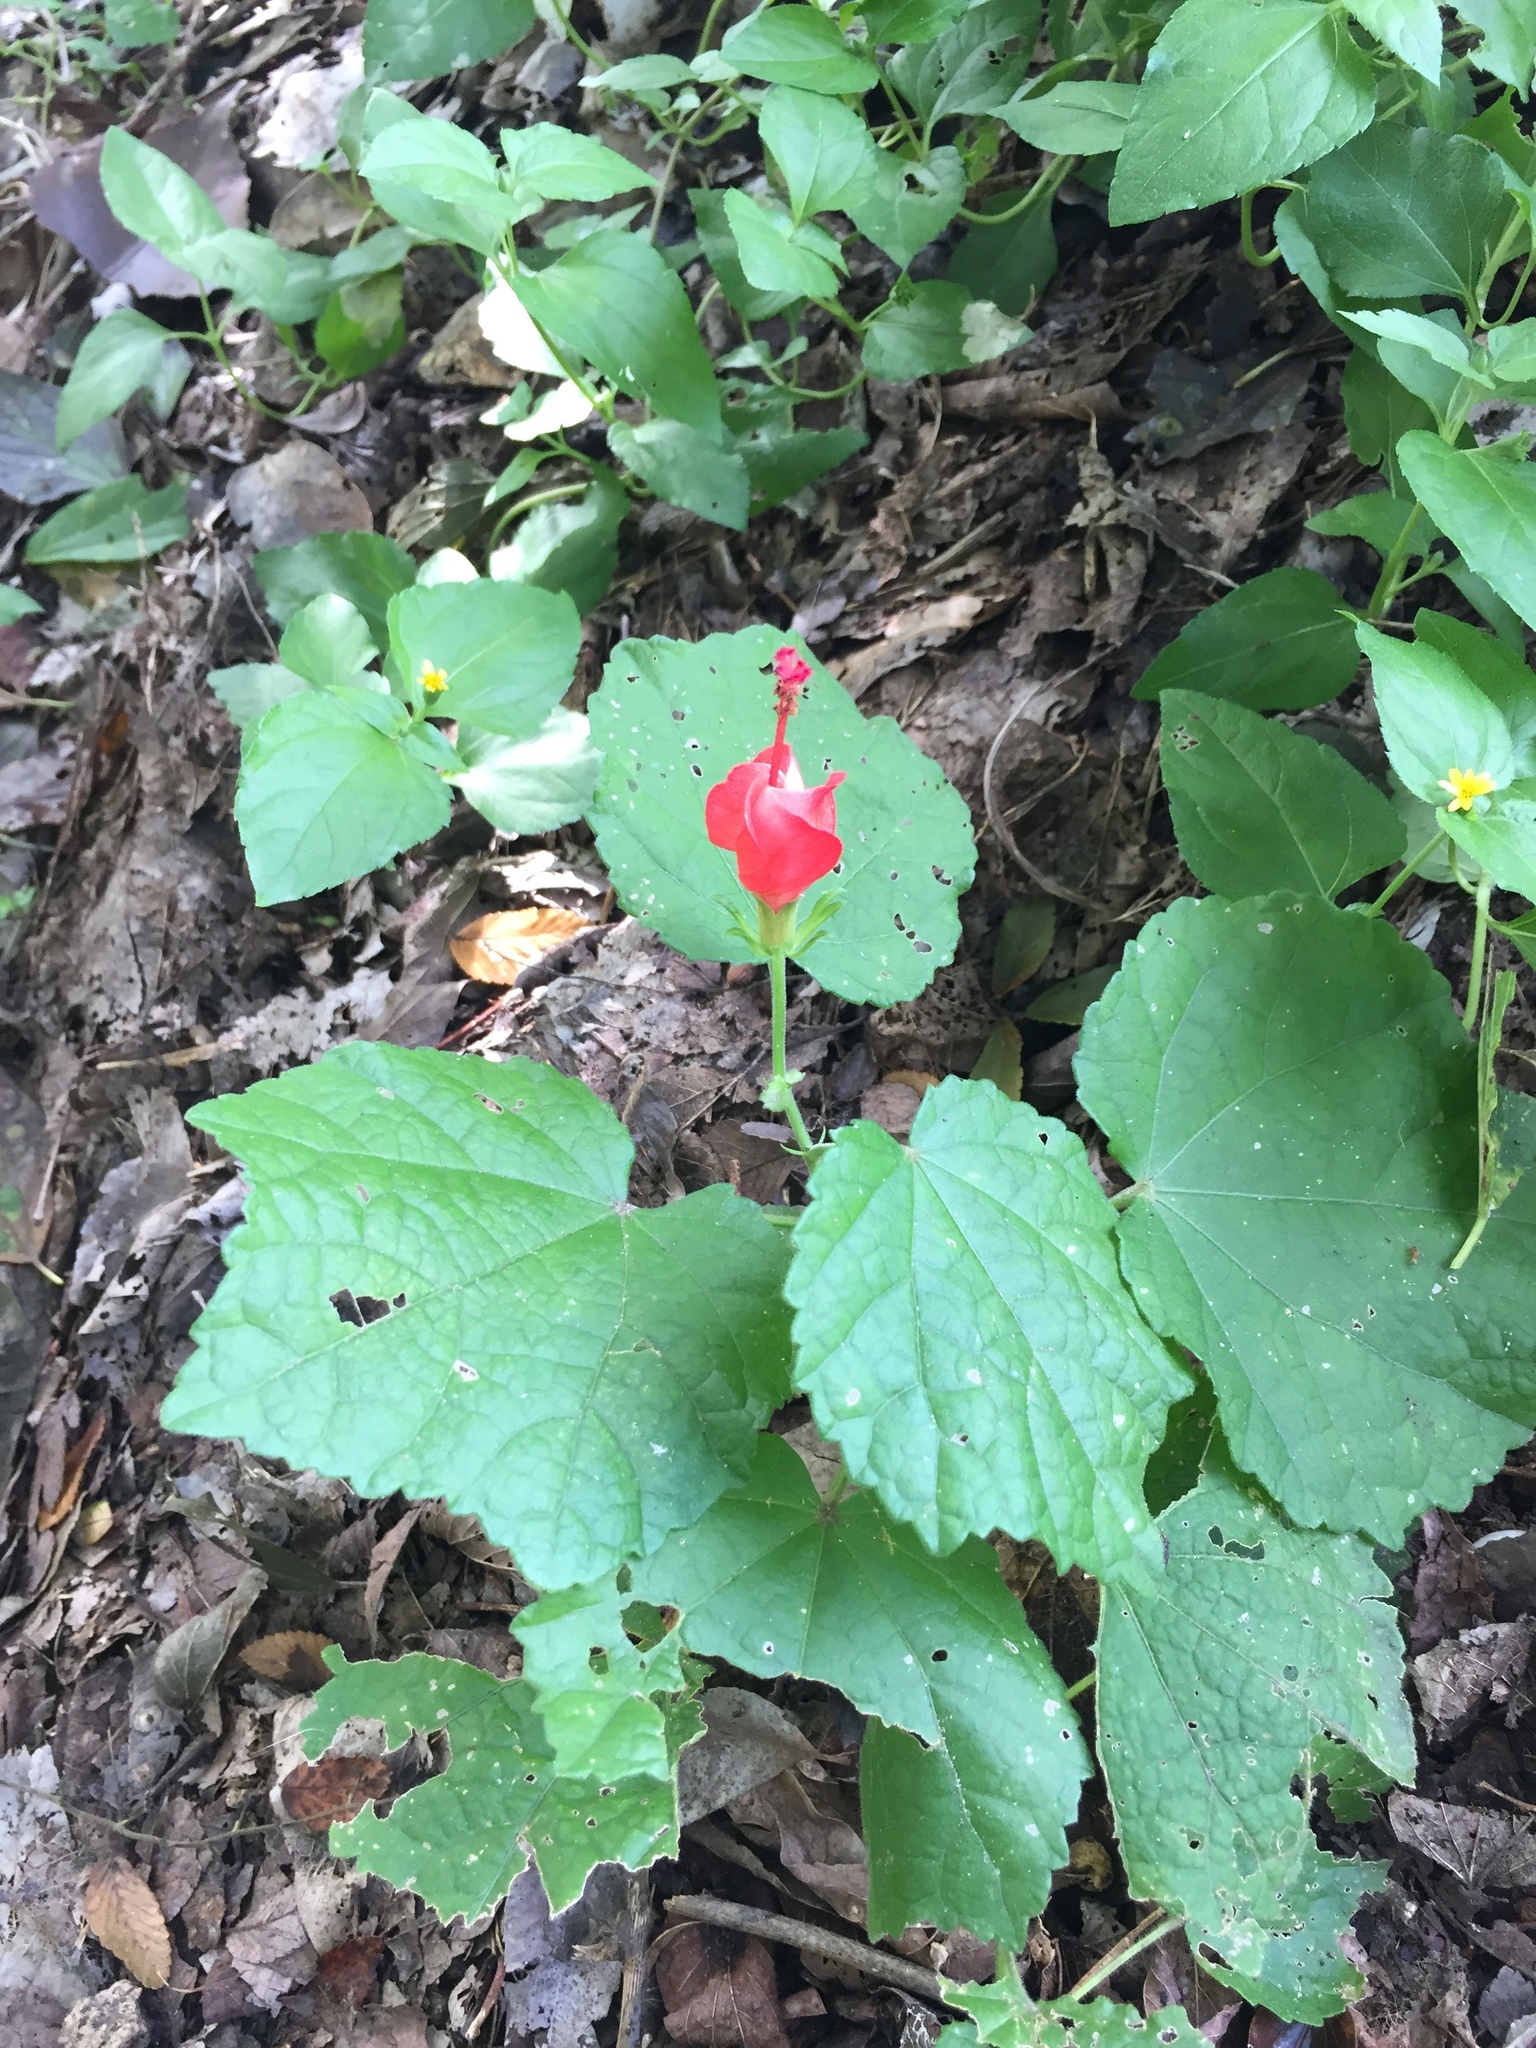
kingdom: Plantae
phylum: Tracheophyta
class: Magnoliopsida
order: Malvales
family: Malvaceae
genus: Malvaviscus
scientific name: Malvaviscus arboreus
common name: Wax mallow
